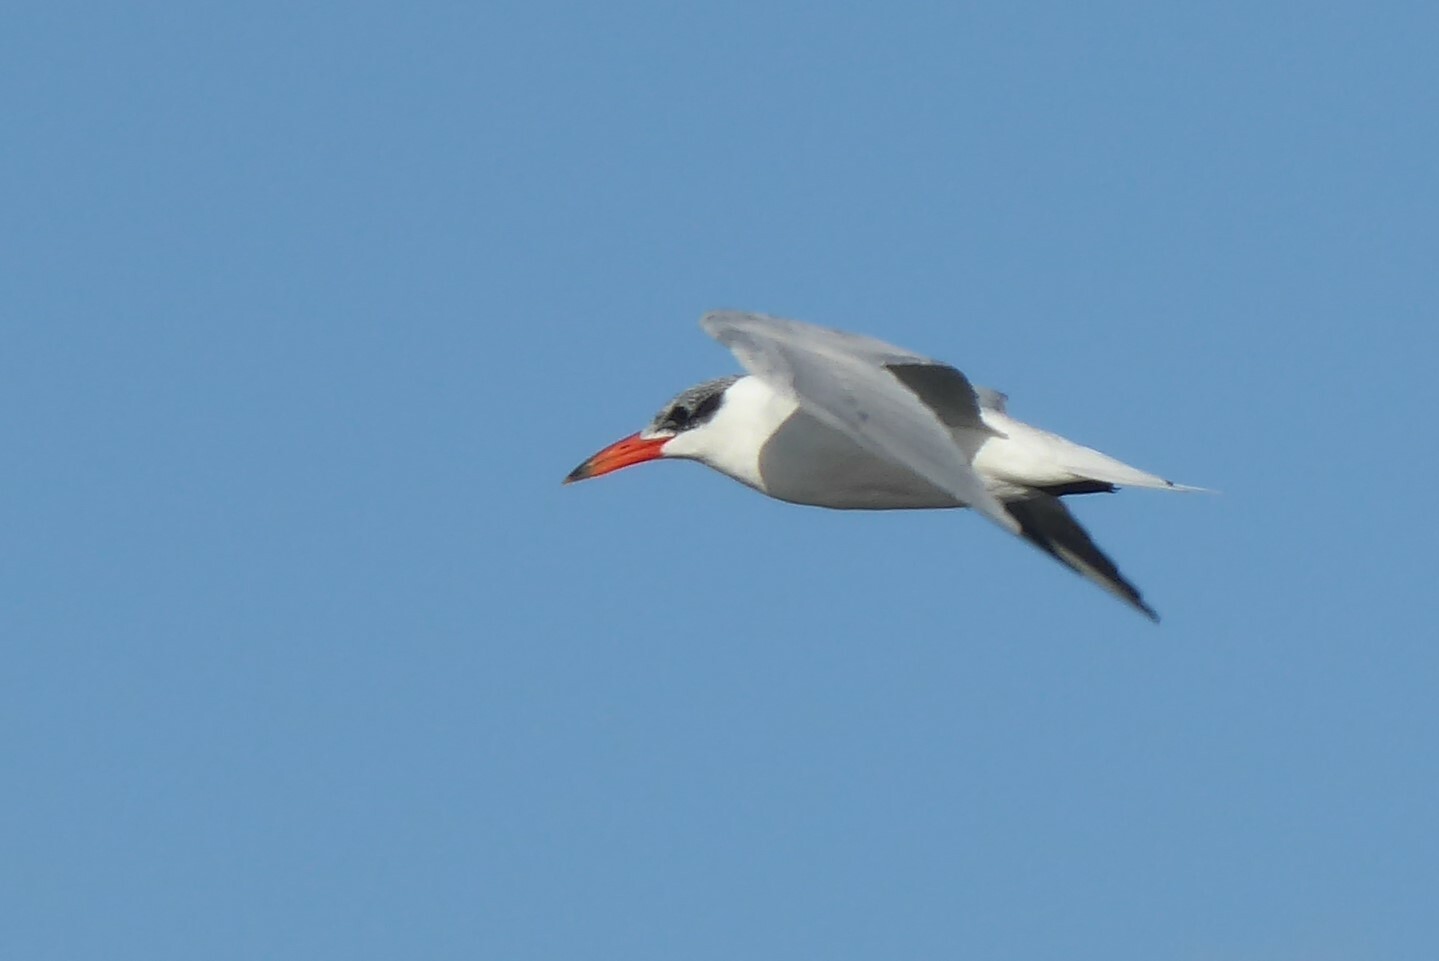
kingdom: Animalia
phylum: Chordata
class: Aves
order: Charadriiformes
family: Laridae
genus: Hydroprogne
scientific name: Hydroprogne caspia
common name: Caspian tern
